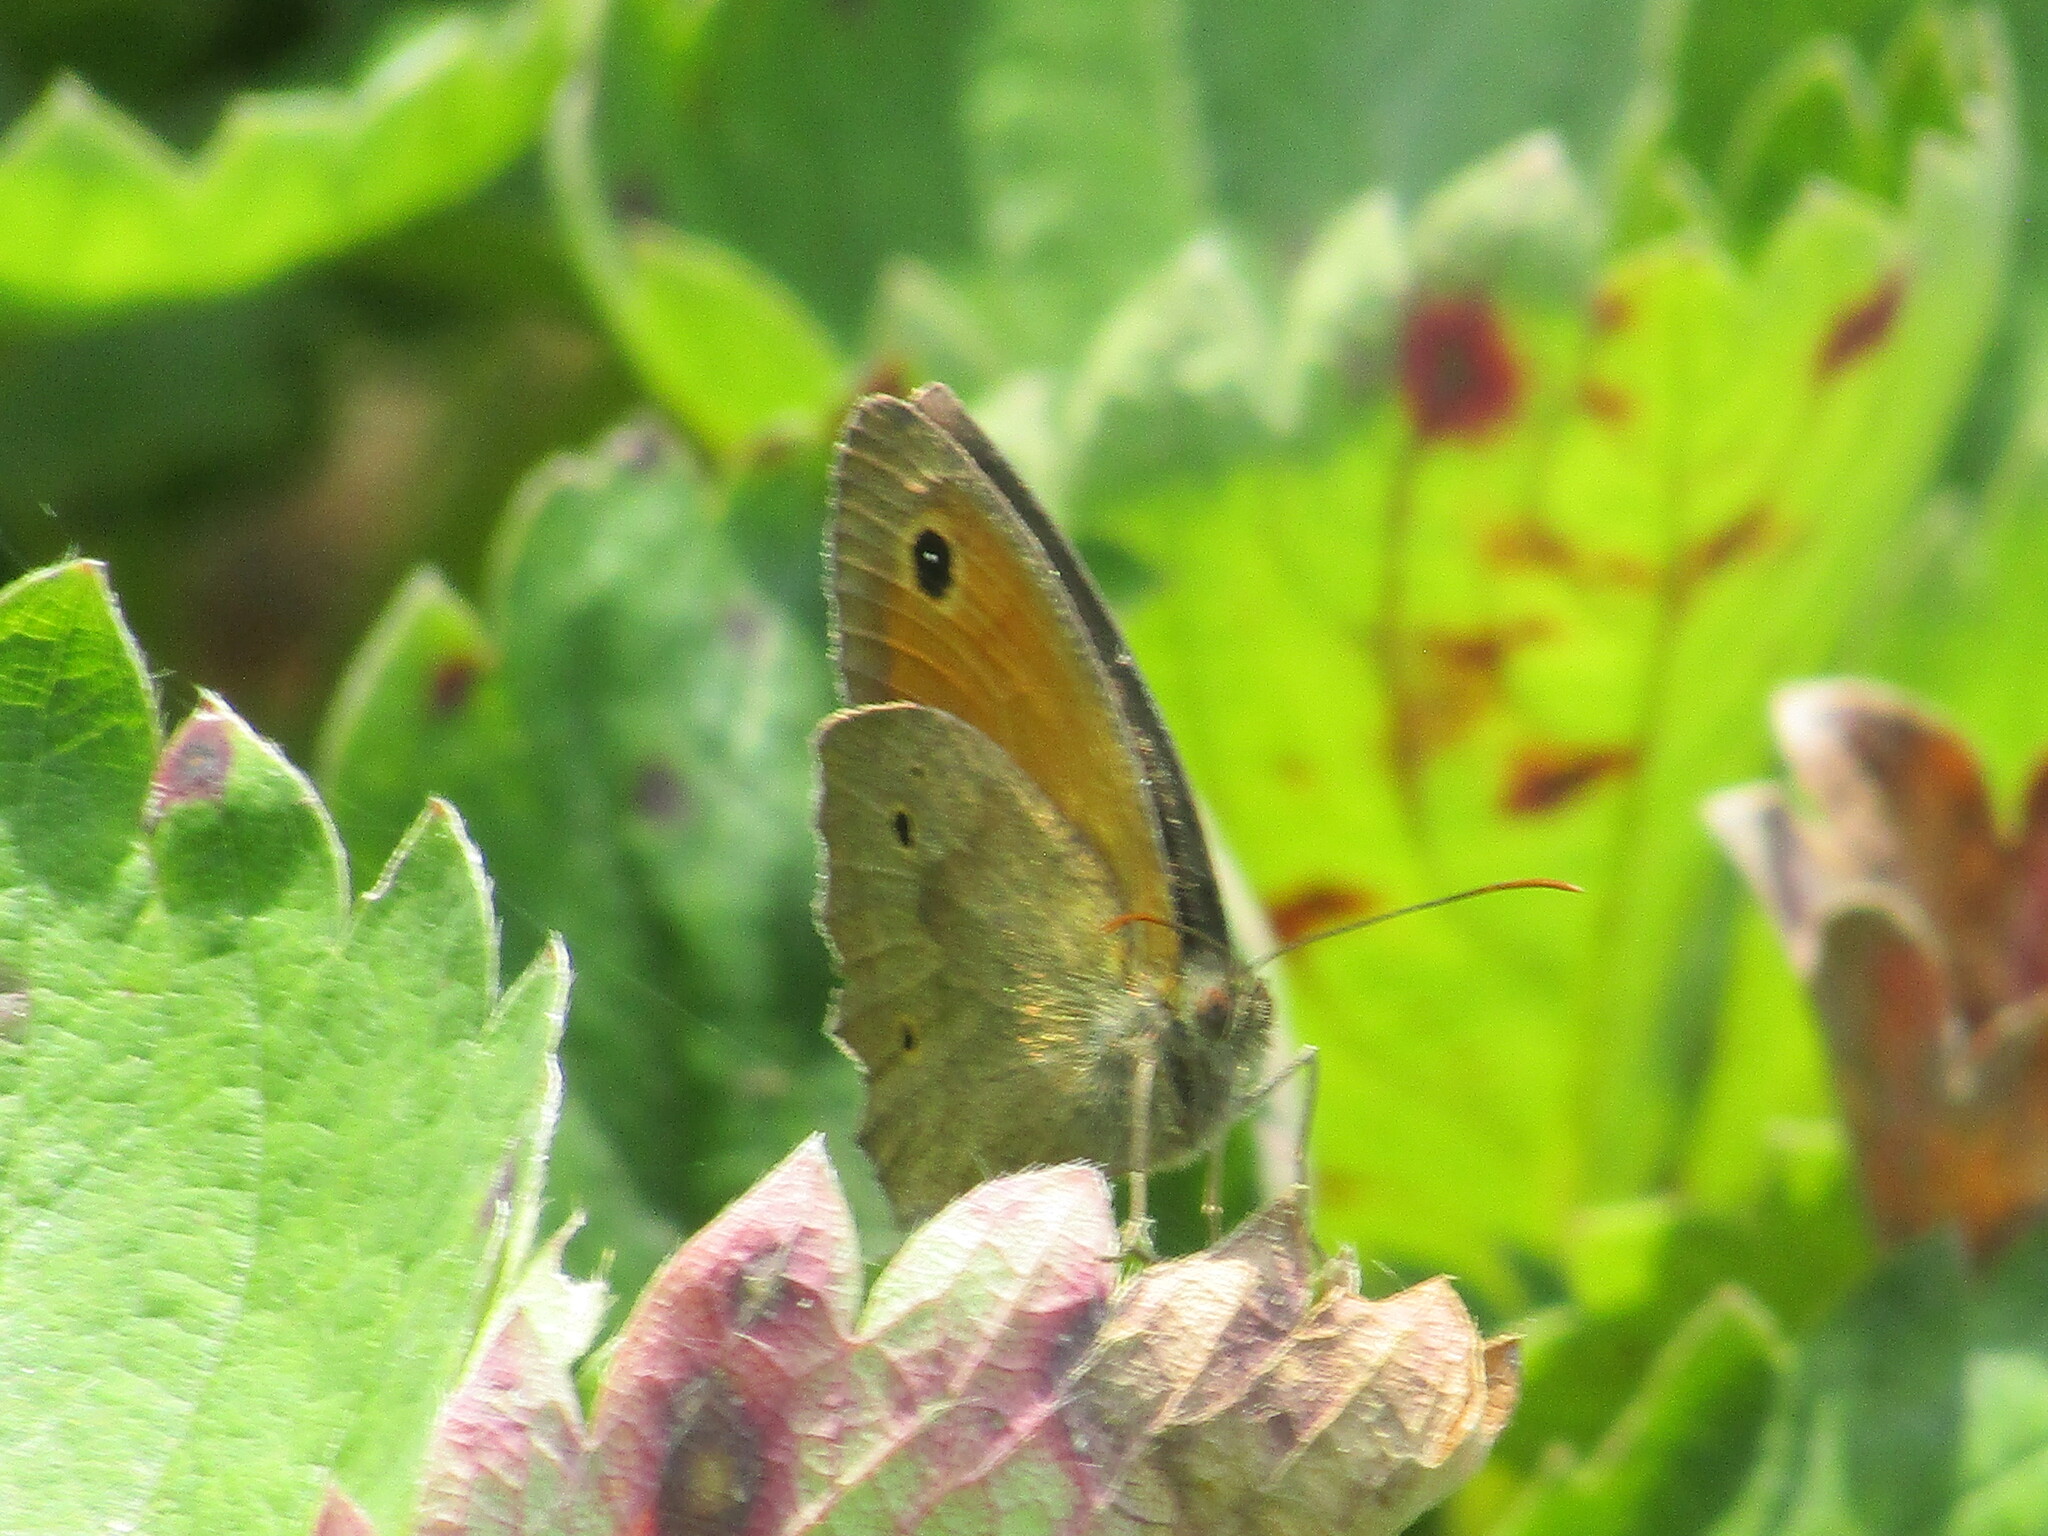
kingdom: Animalia
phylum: Arthropoda
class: Insecta
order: Lepidoptera
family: Nymphalidae
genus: Maniola
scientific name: Maniola jurtina
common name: Meadow brown
